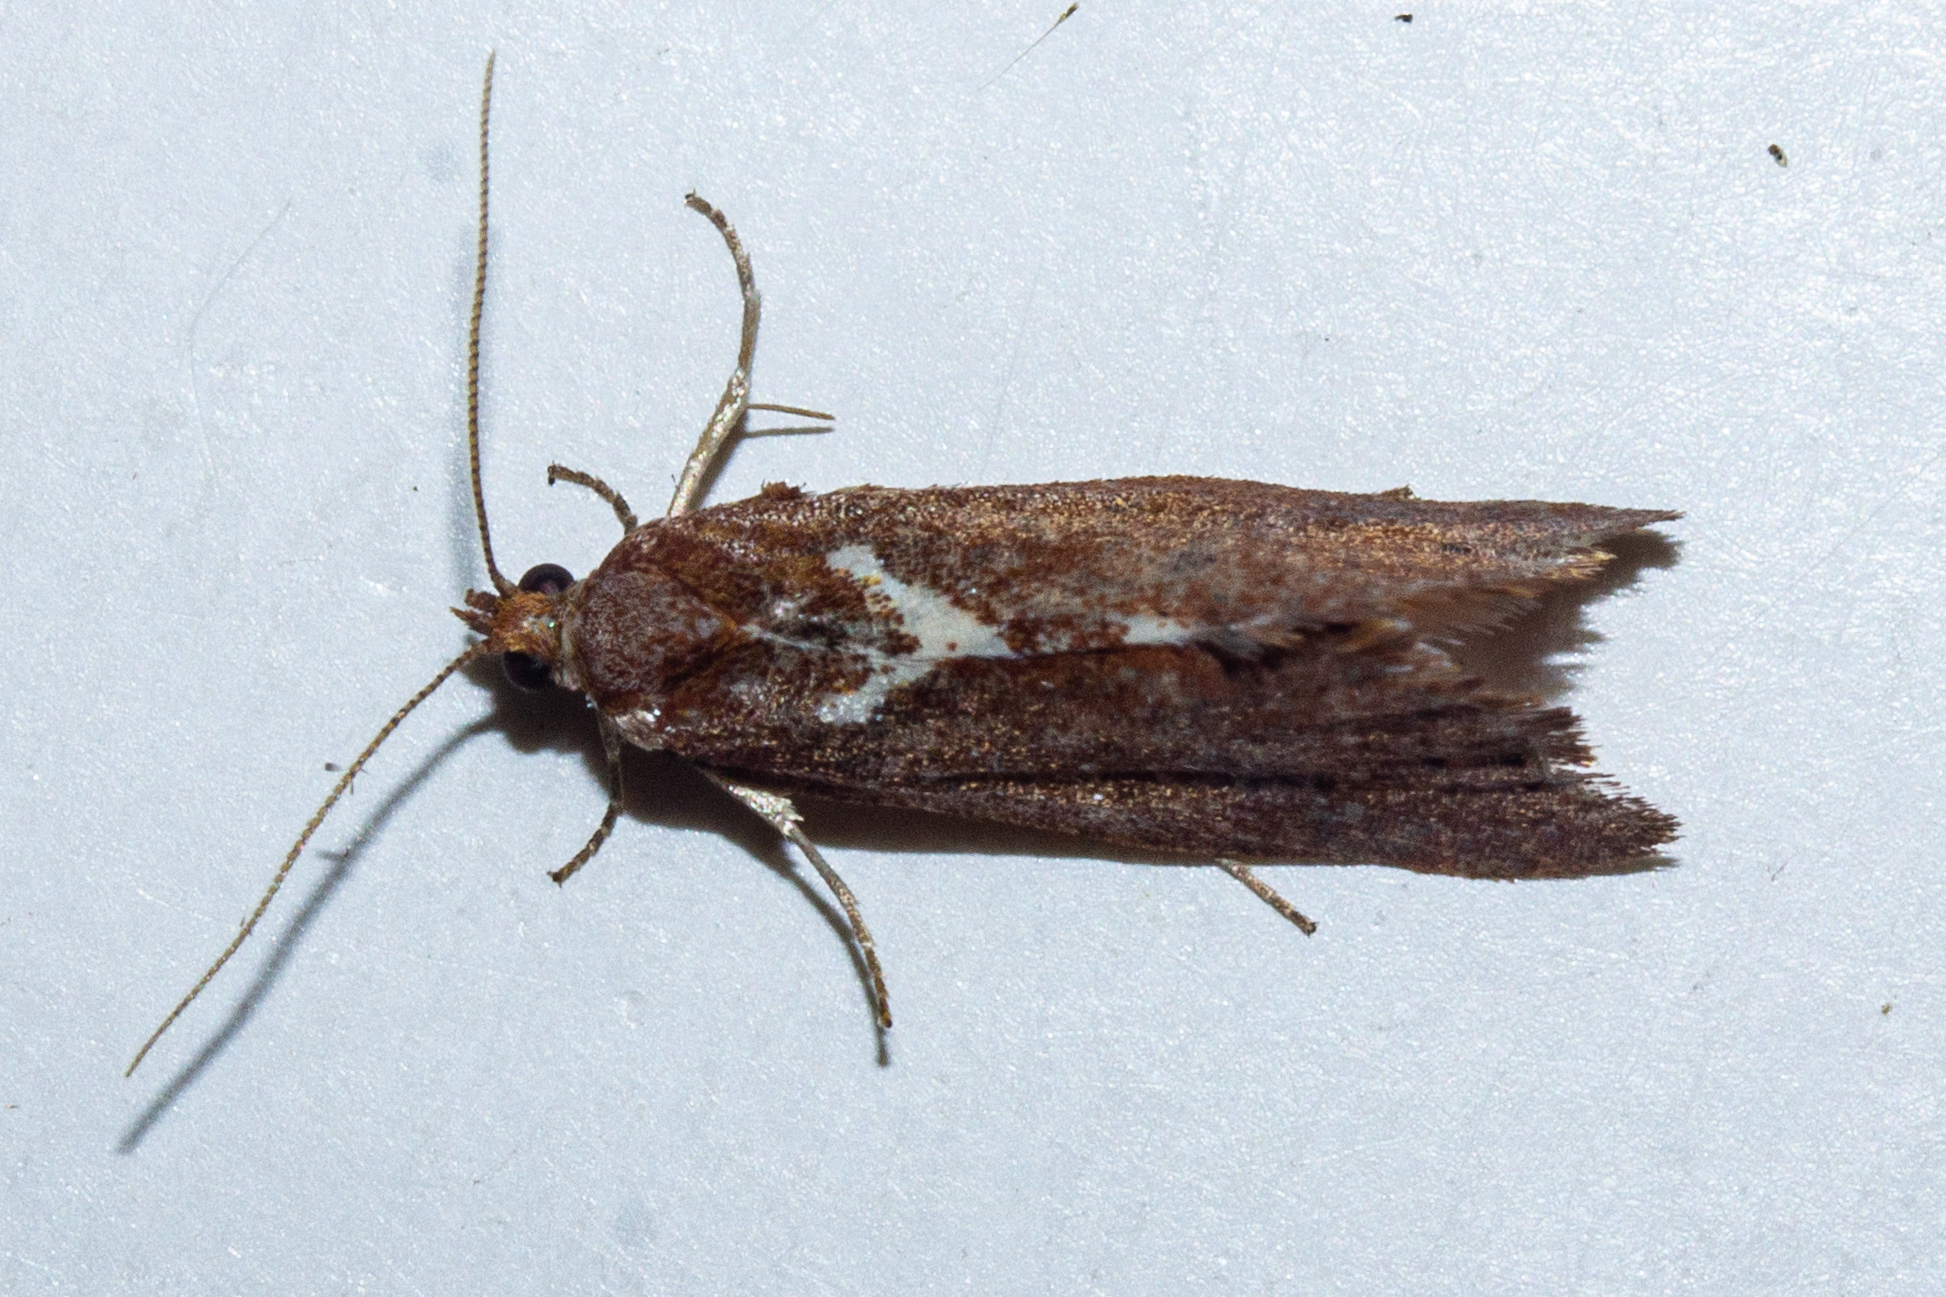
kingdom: Animalia
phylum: Arthropoda
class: Insecta
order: Lepidoptera
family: Tortricidae
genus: Pyrgotis
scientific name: Pyrgotis pyramidias
